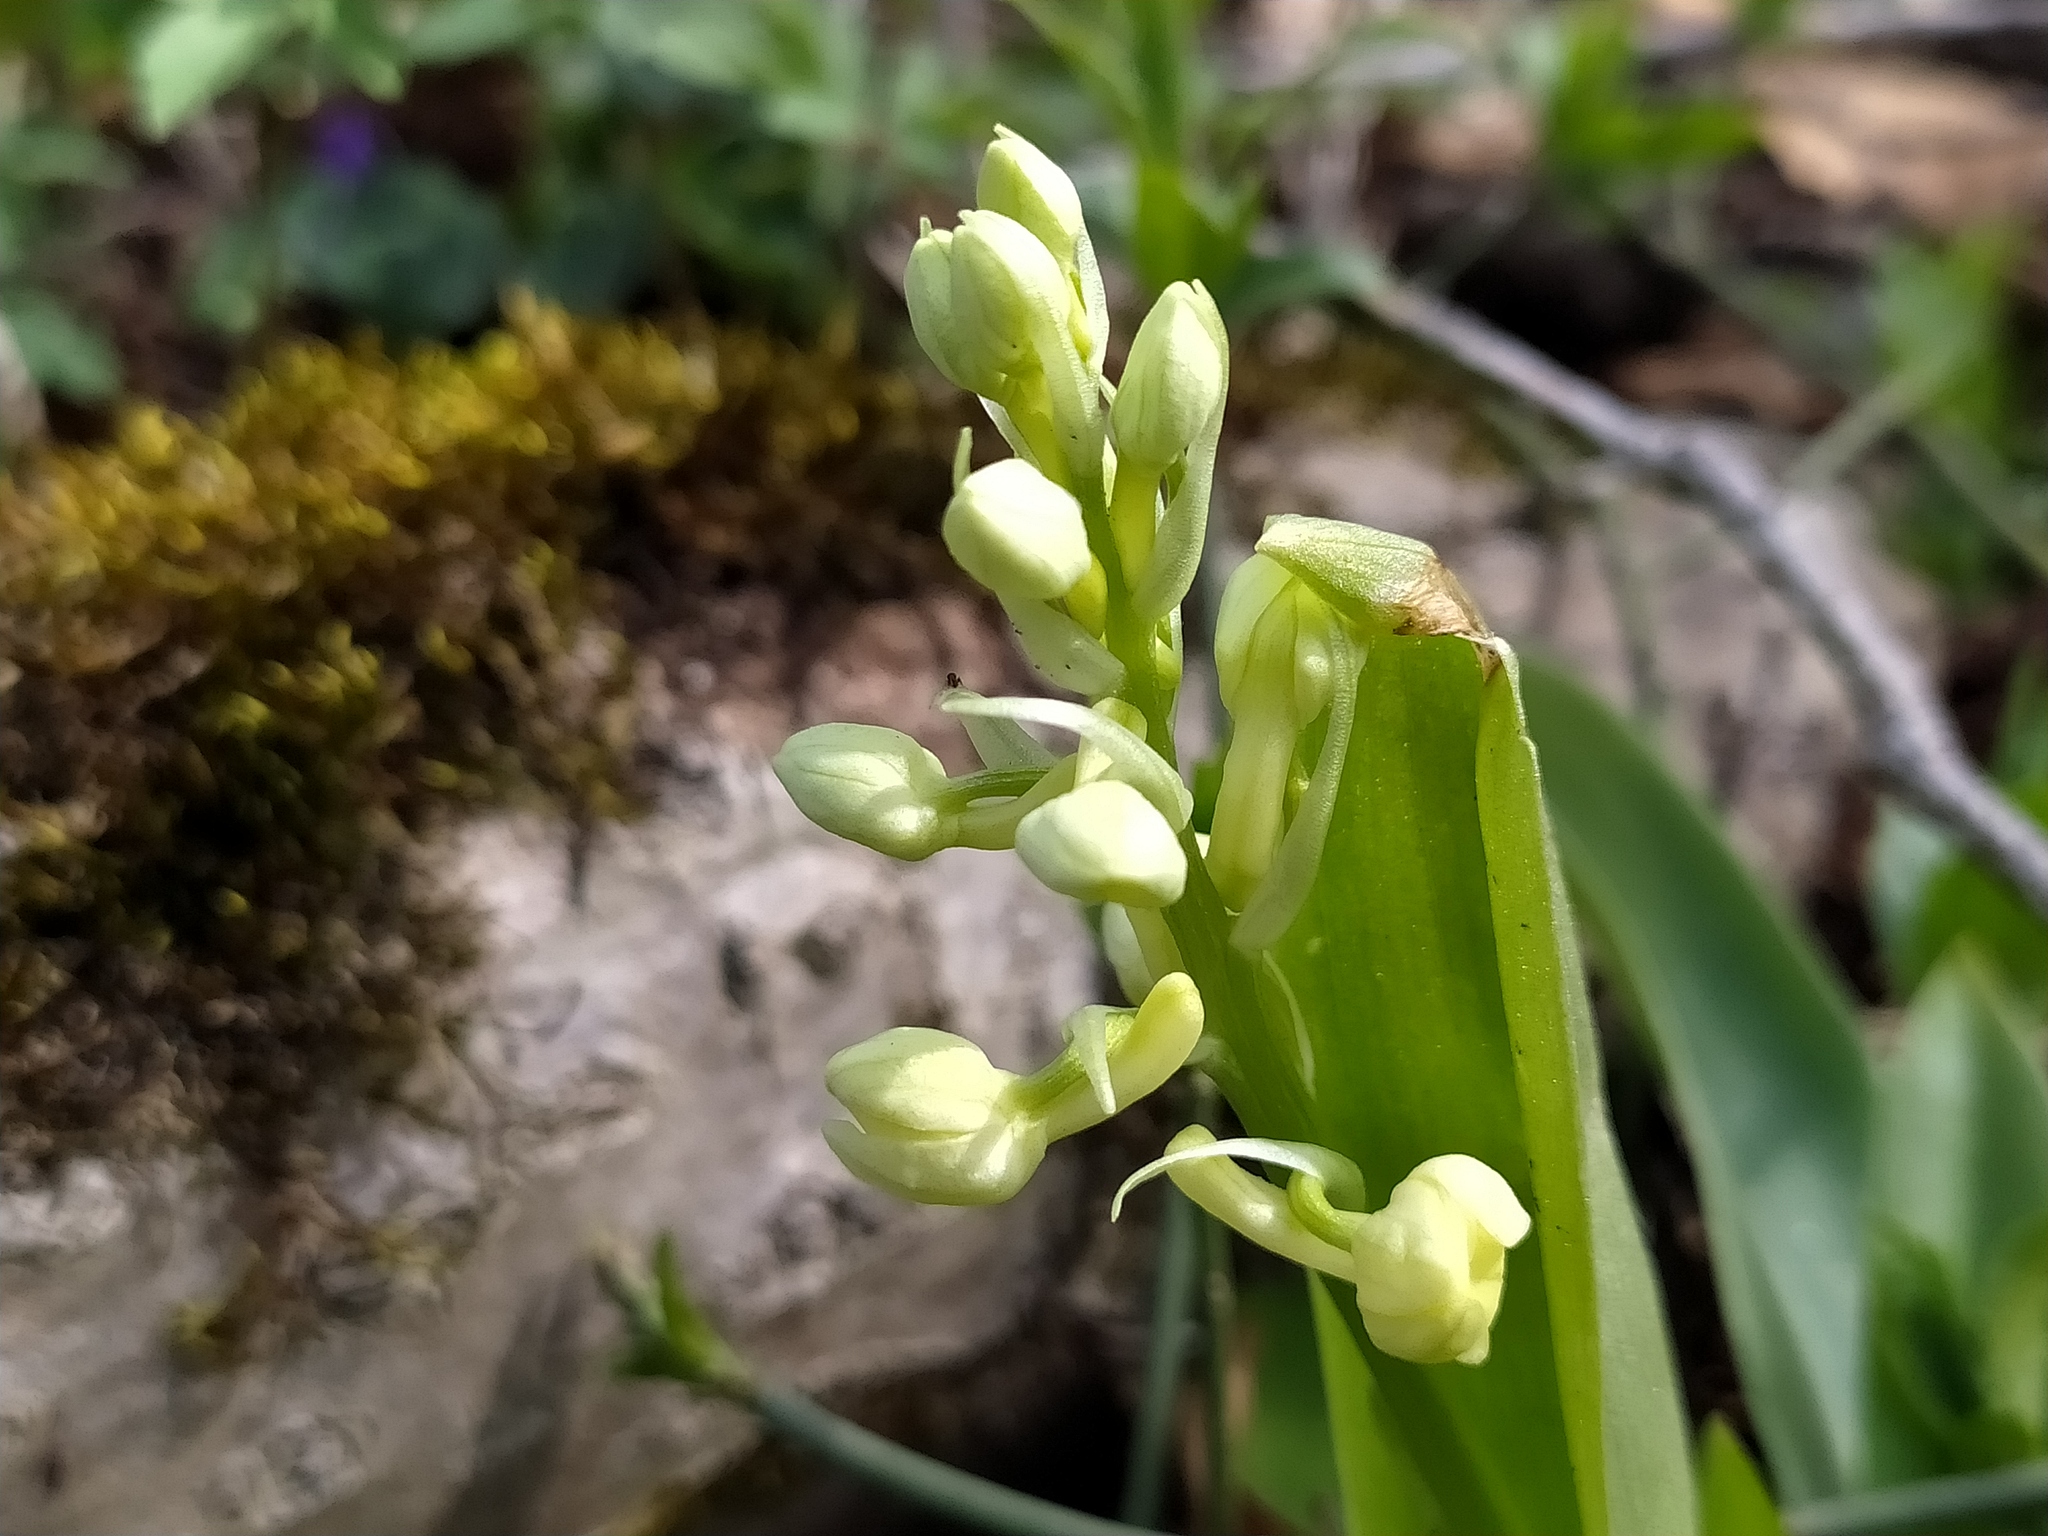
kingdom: Plantae
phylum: Tracheophyta
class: Liliopsida
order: Asparagales
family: Orchidaceae
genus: Orchis
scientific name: Orchis pallens
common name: Pale-flowered orchid
